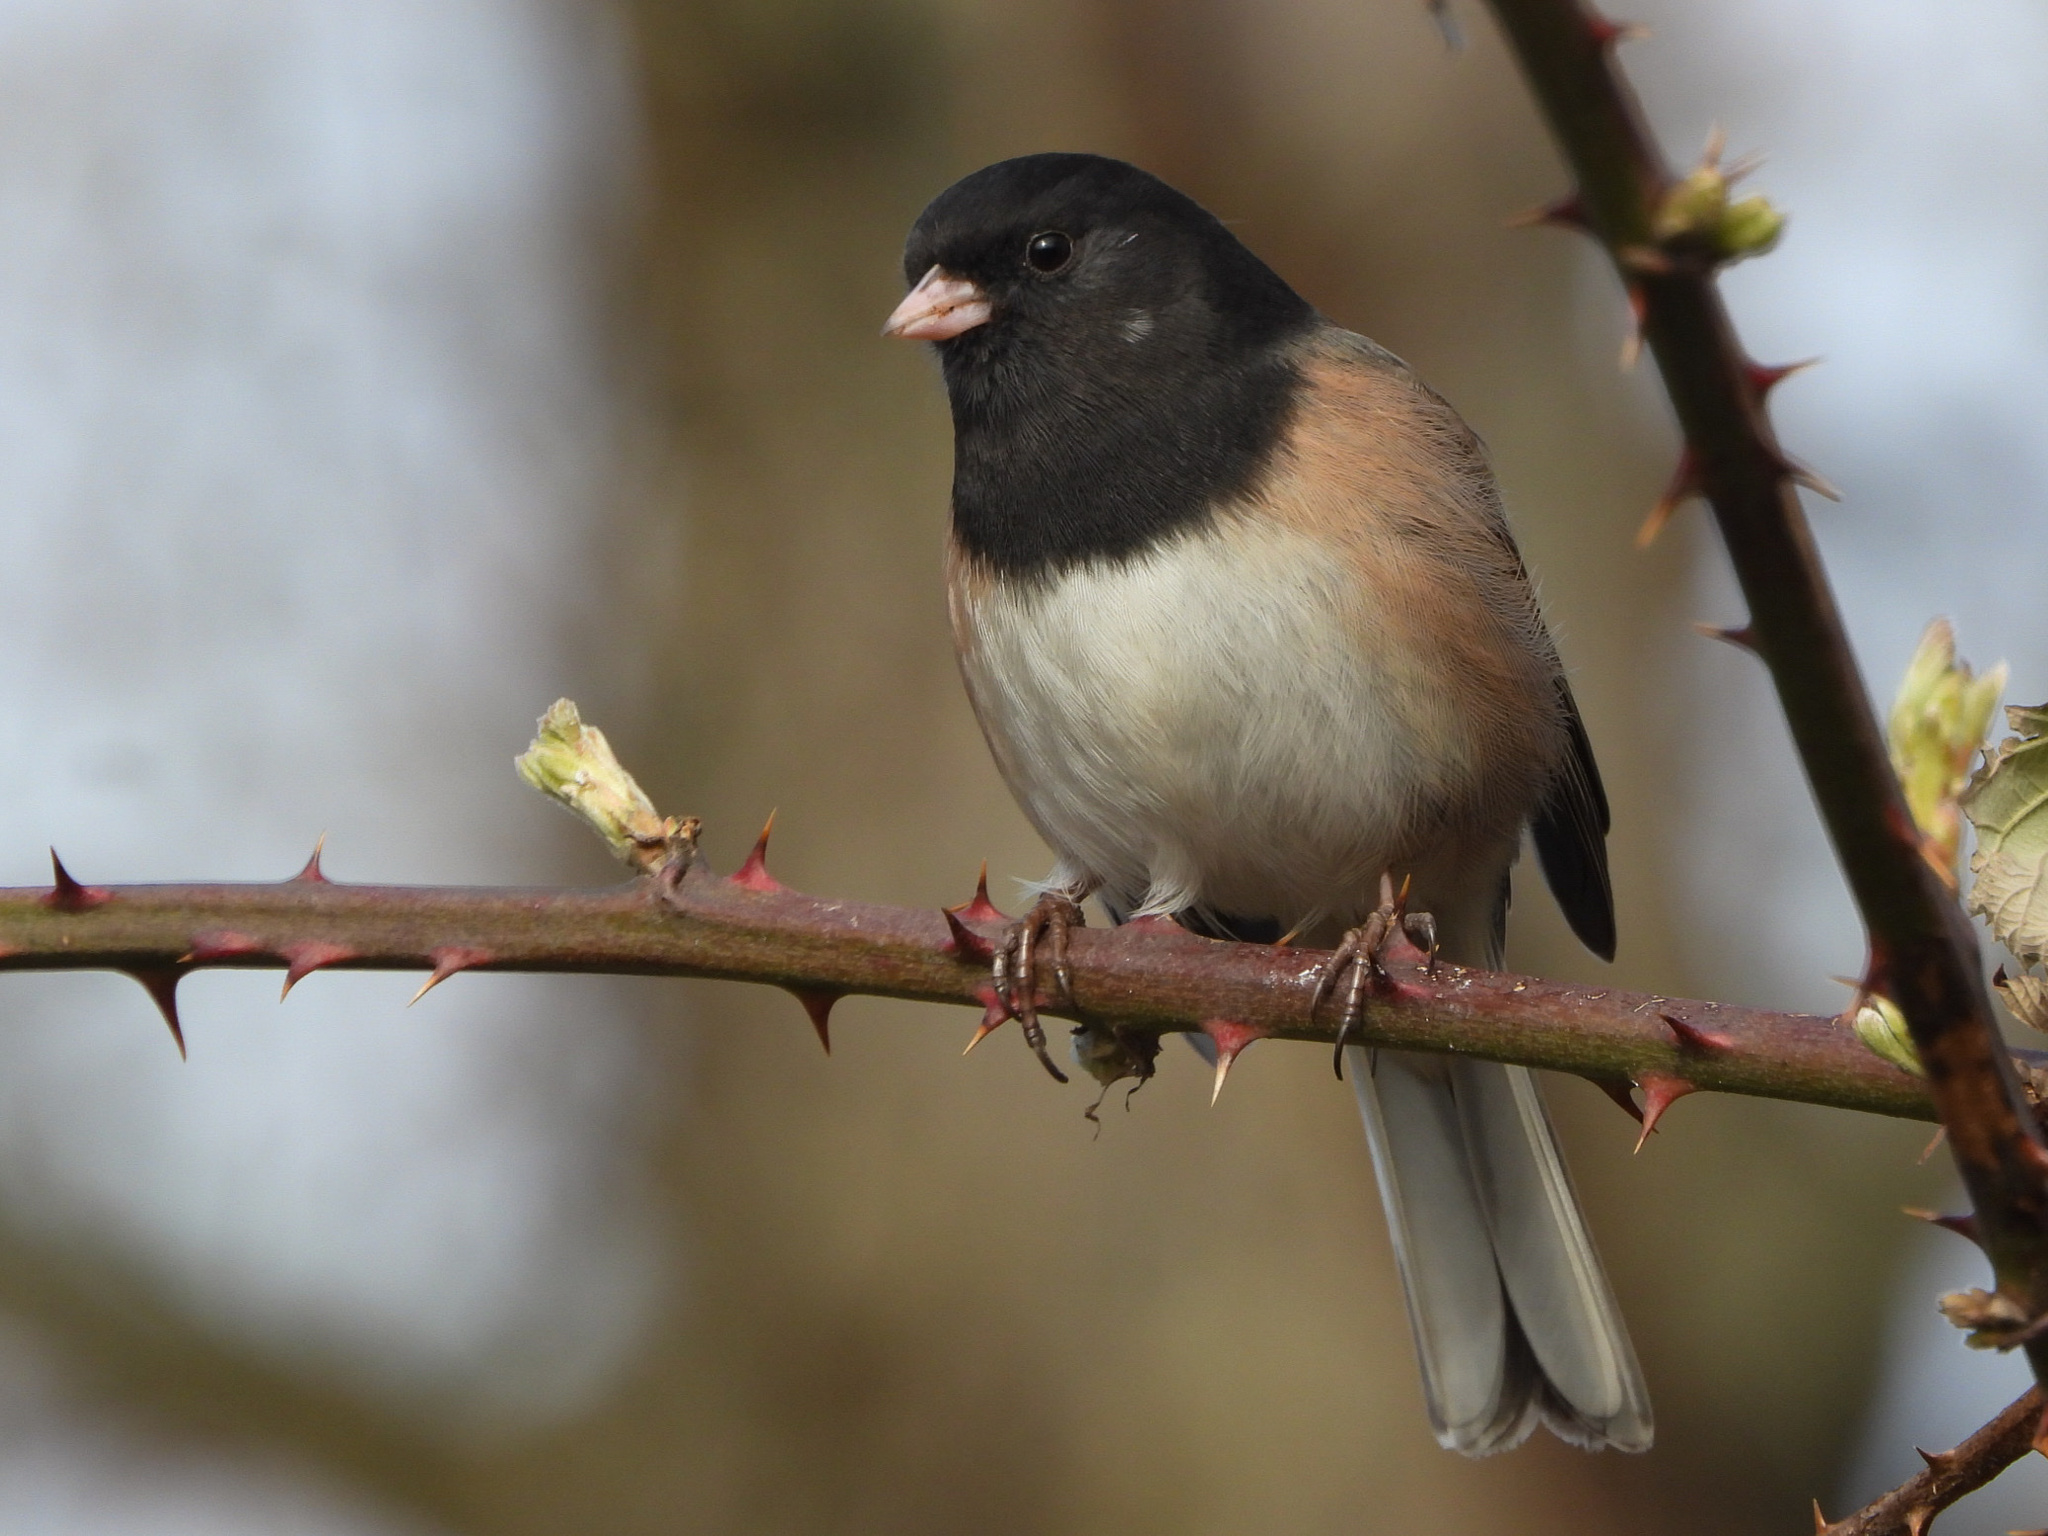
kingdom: Animalia
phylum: Chordata
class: Aves
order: Passeriformes
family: Passerellidae
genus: Junco
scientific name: Junco hyemalis
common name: Dark-eyed junco
